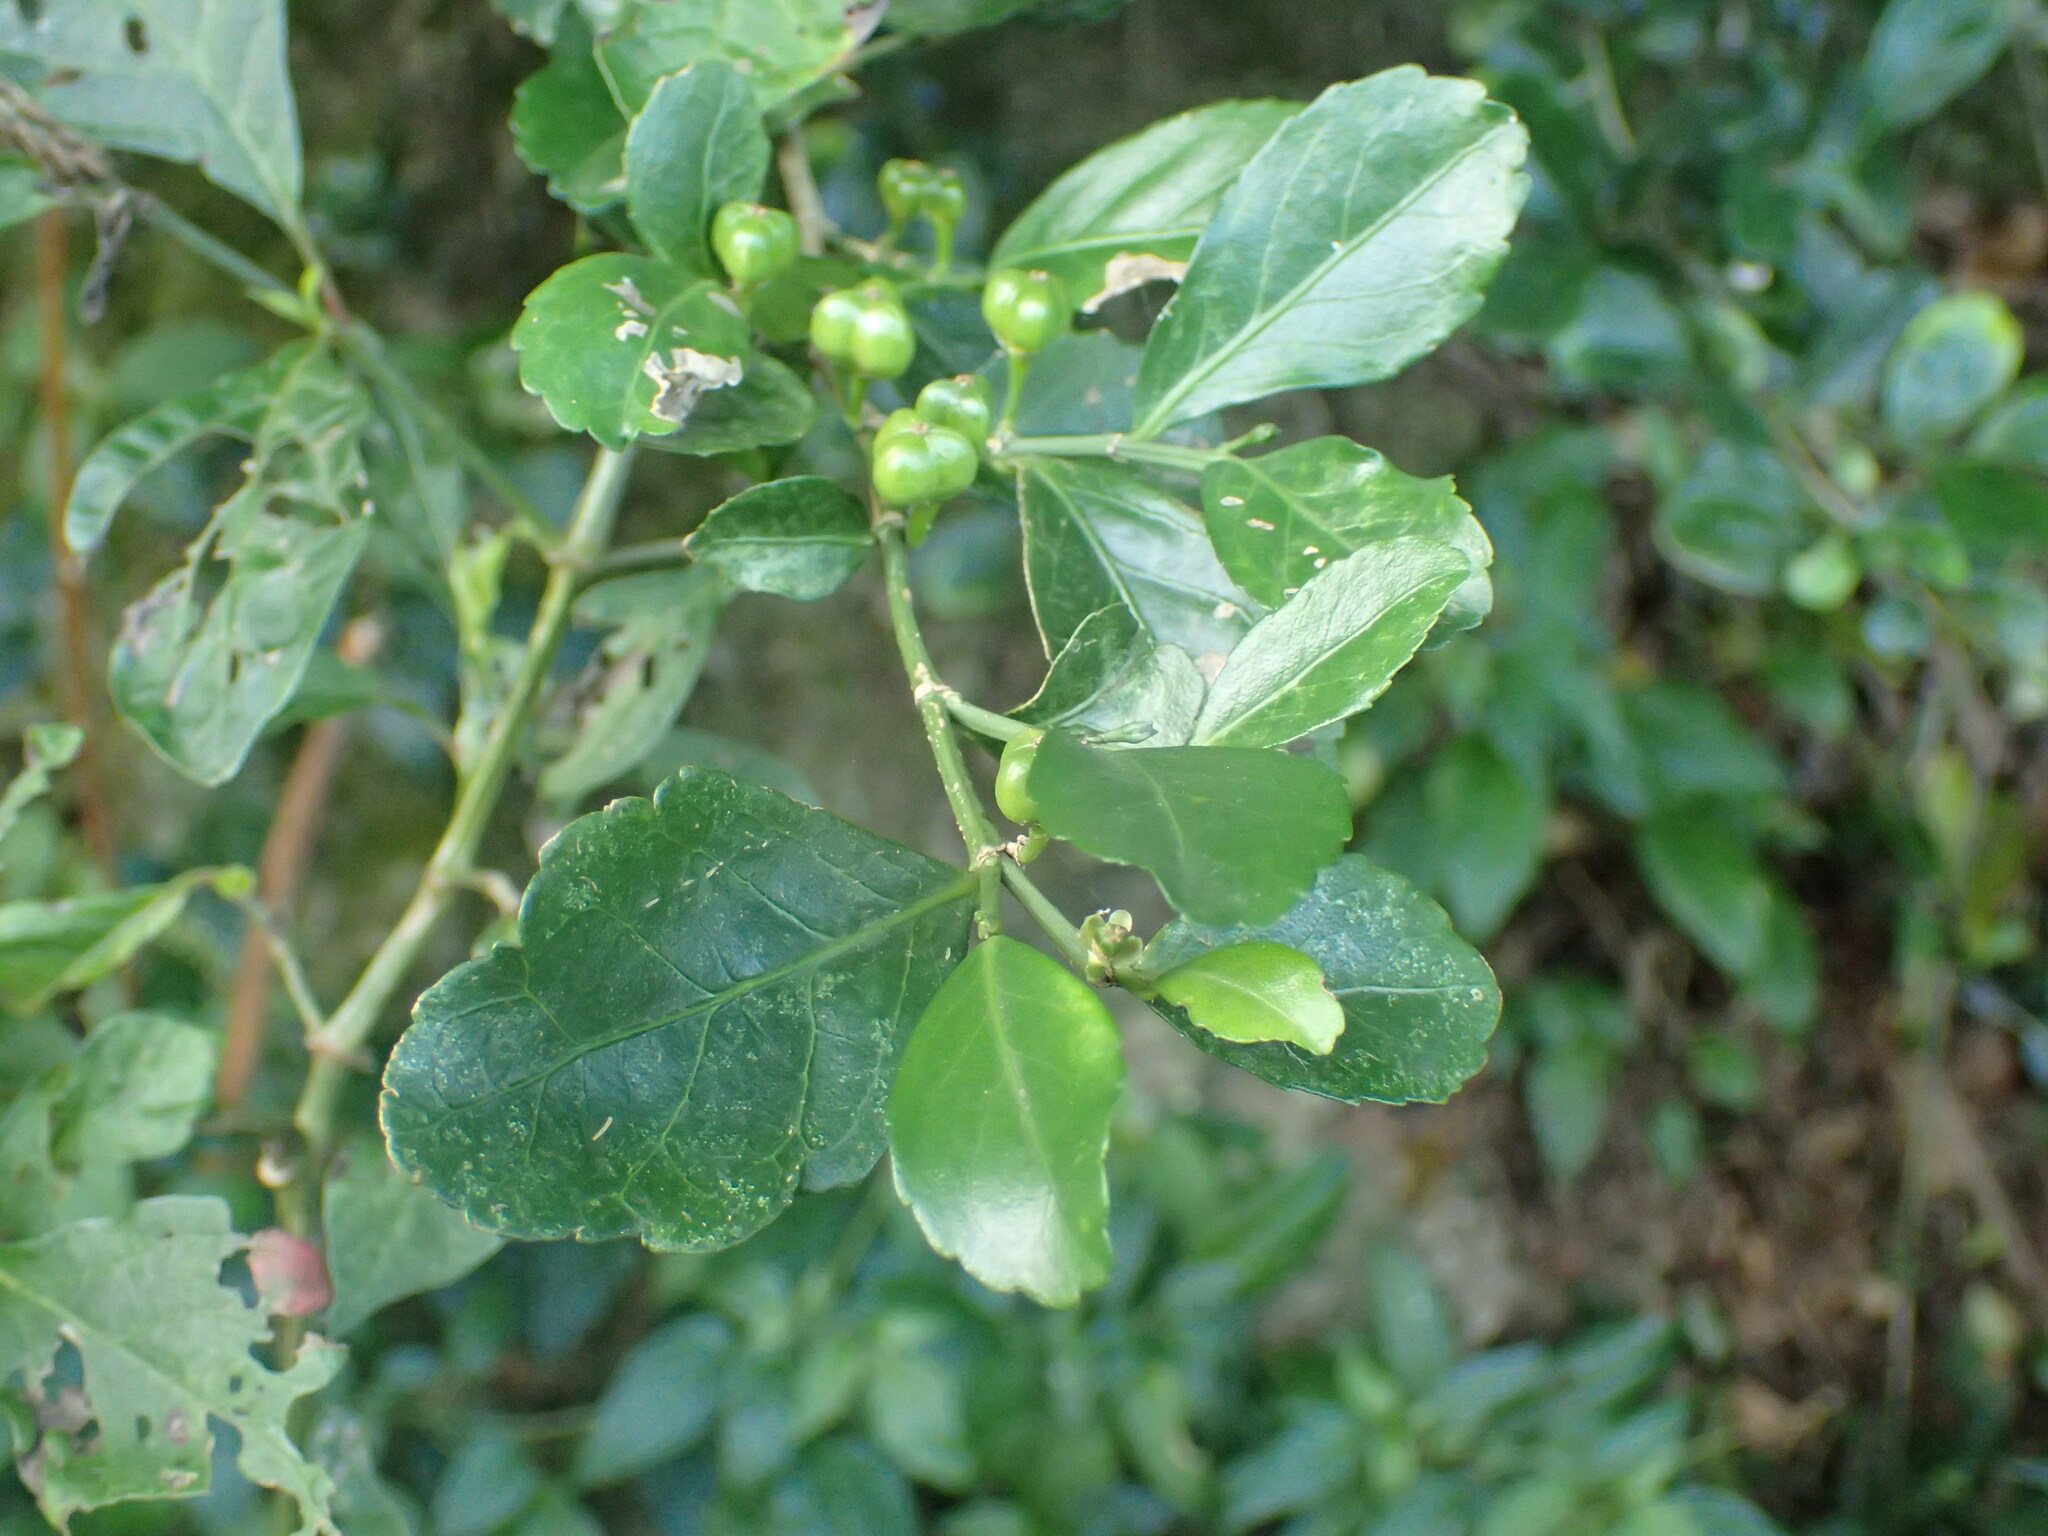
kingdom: Plantae
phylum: Tracheophyta
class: Magnoliopsida
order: Malpighiales
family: Euphorbiaceae
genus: Suregada
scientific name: Suregada africana
